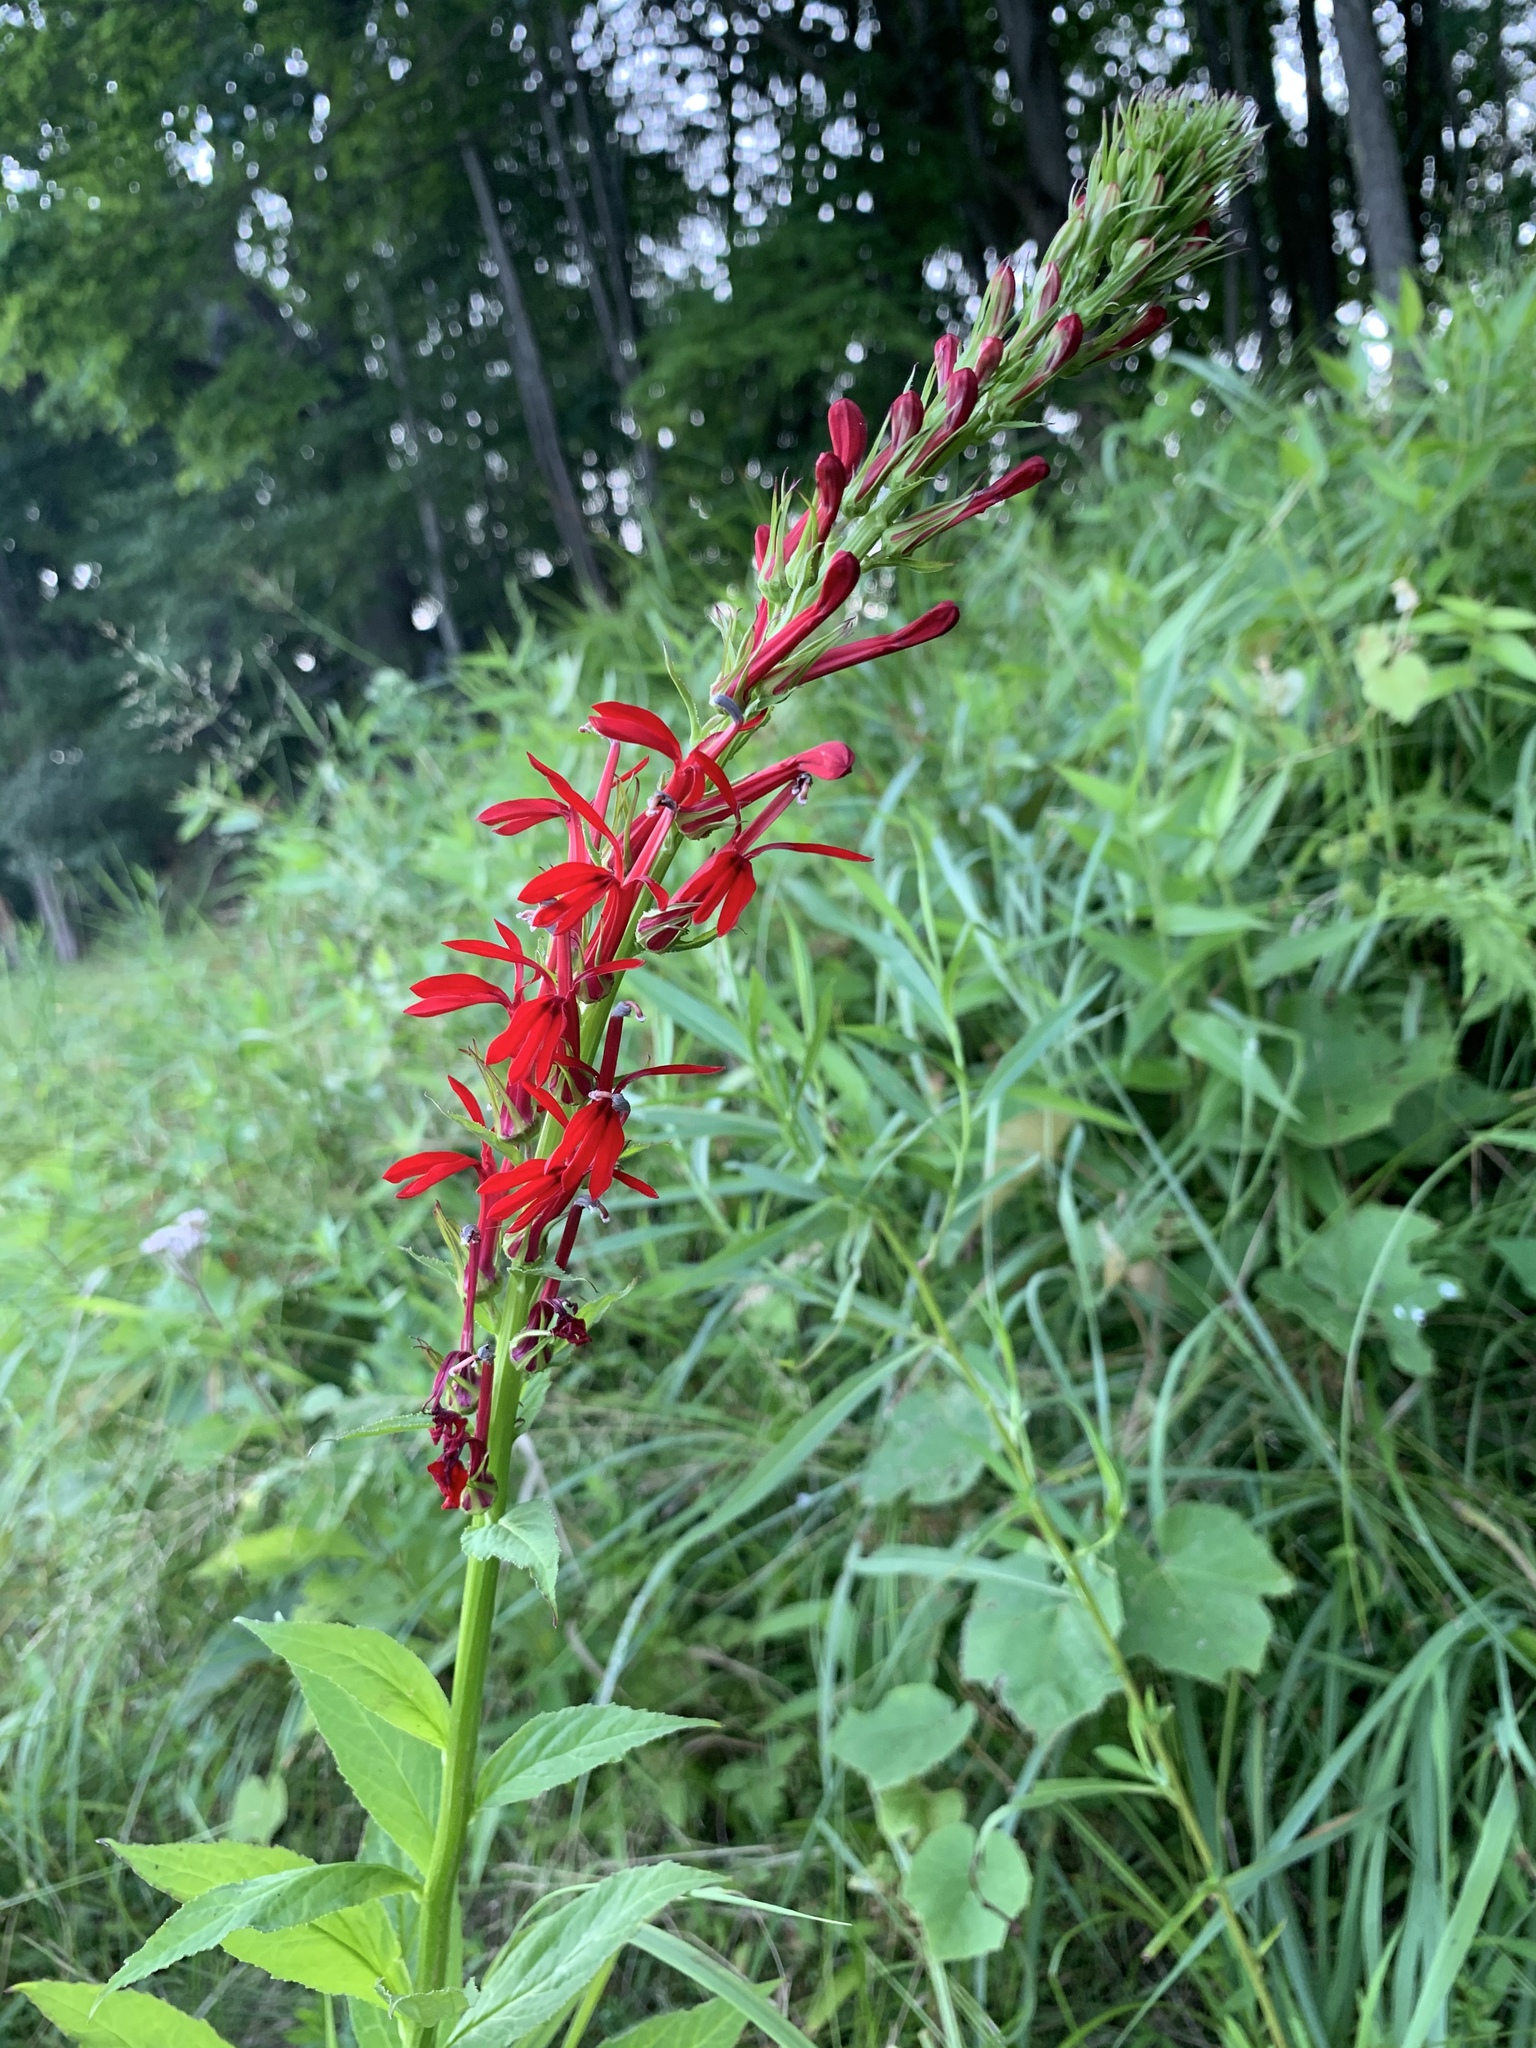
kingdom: Plantae
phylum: Tracheophyta
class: Magnoliopsida
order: Asterales
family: Campanulaceae
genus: Lobelia
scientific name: Lobelia cardinalis
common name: Cardinal flower
